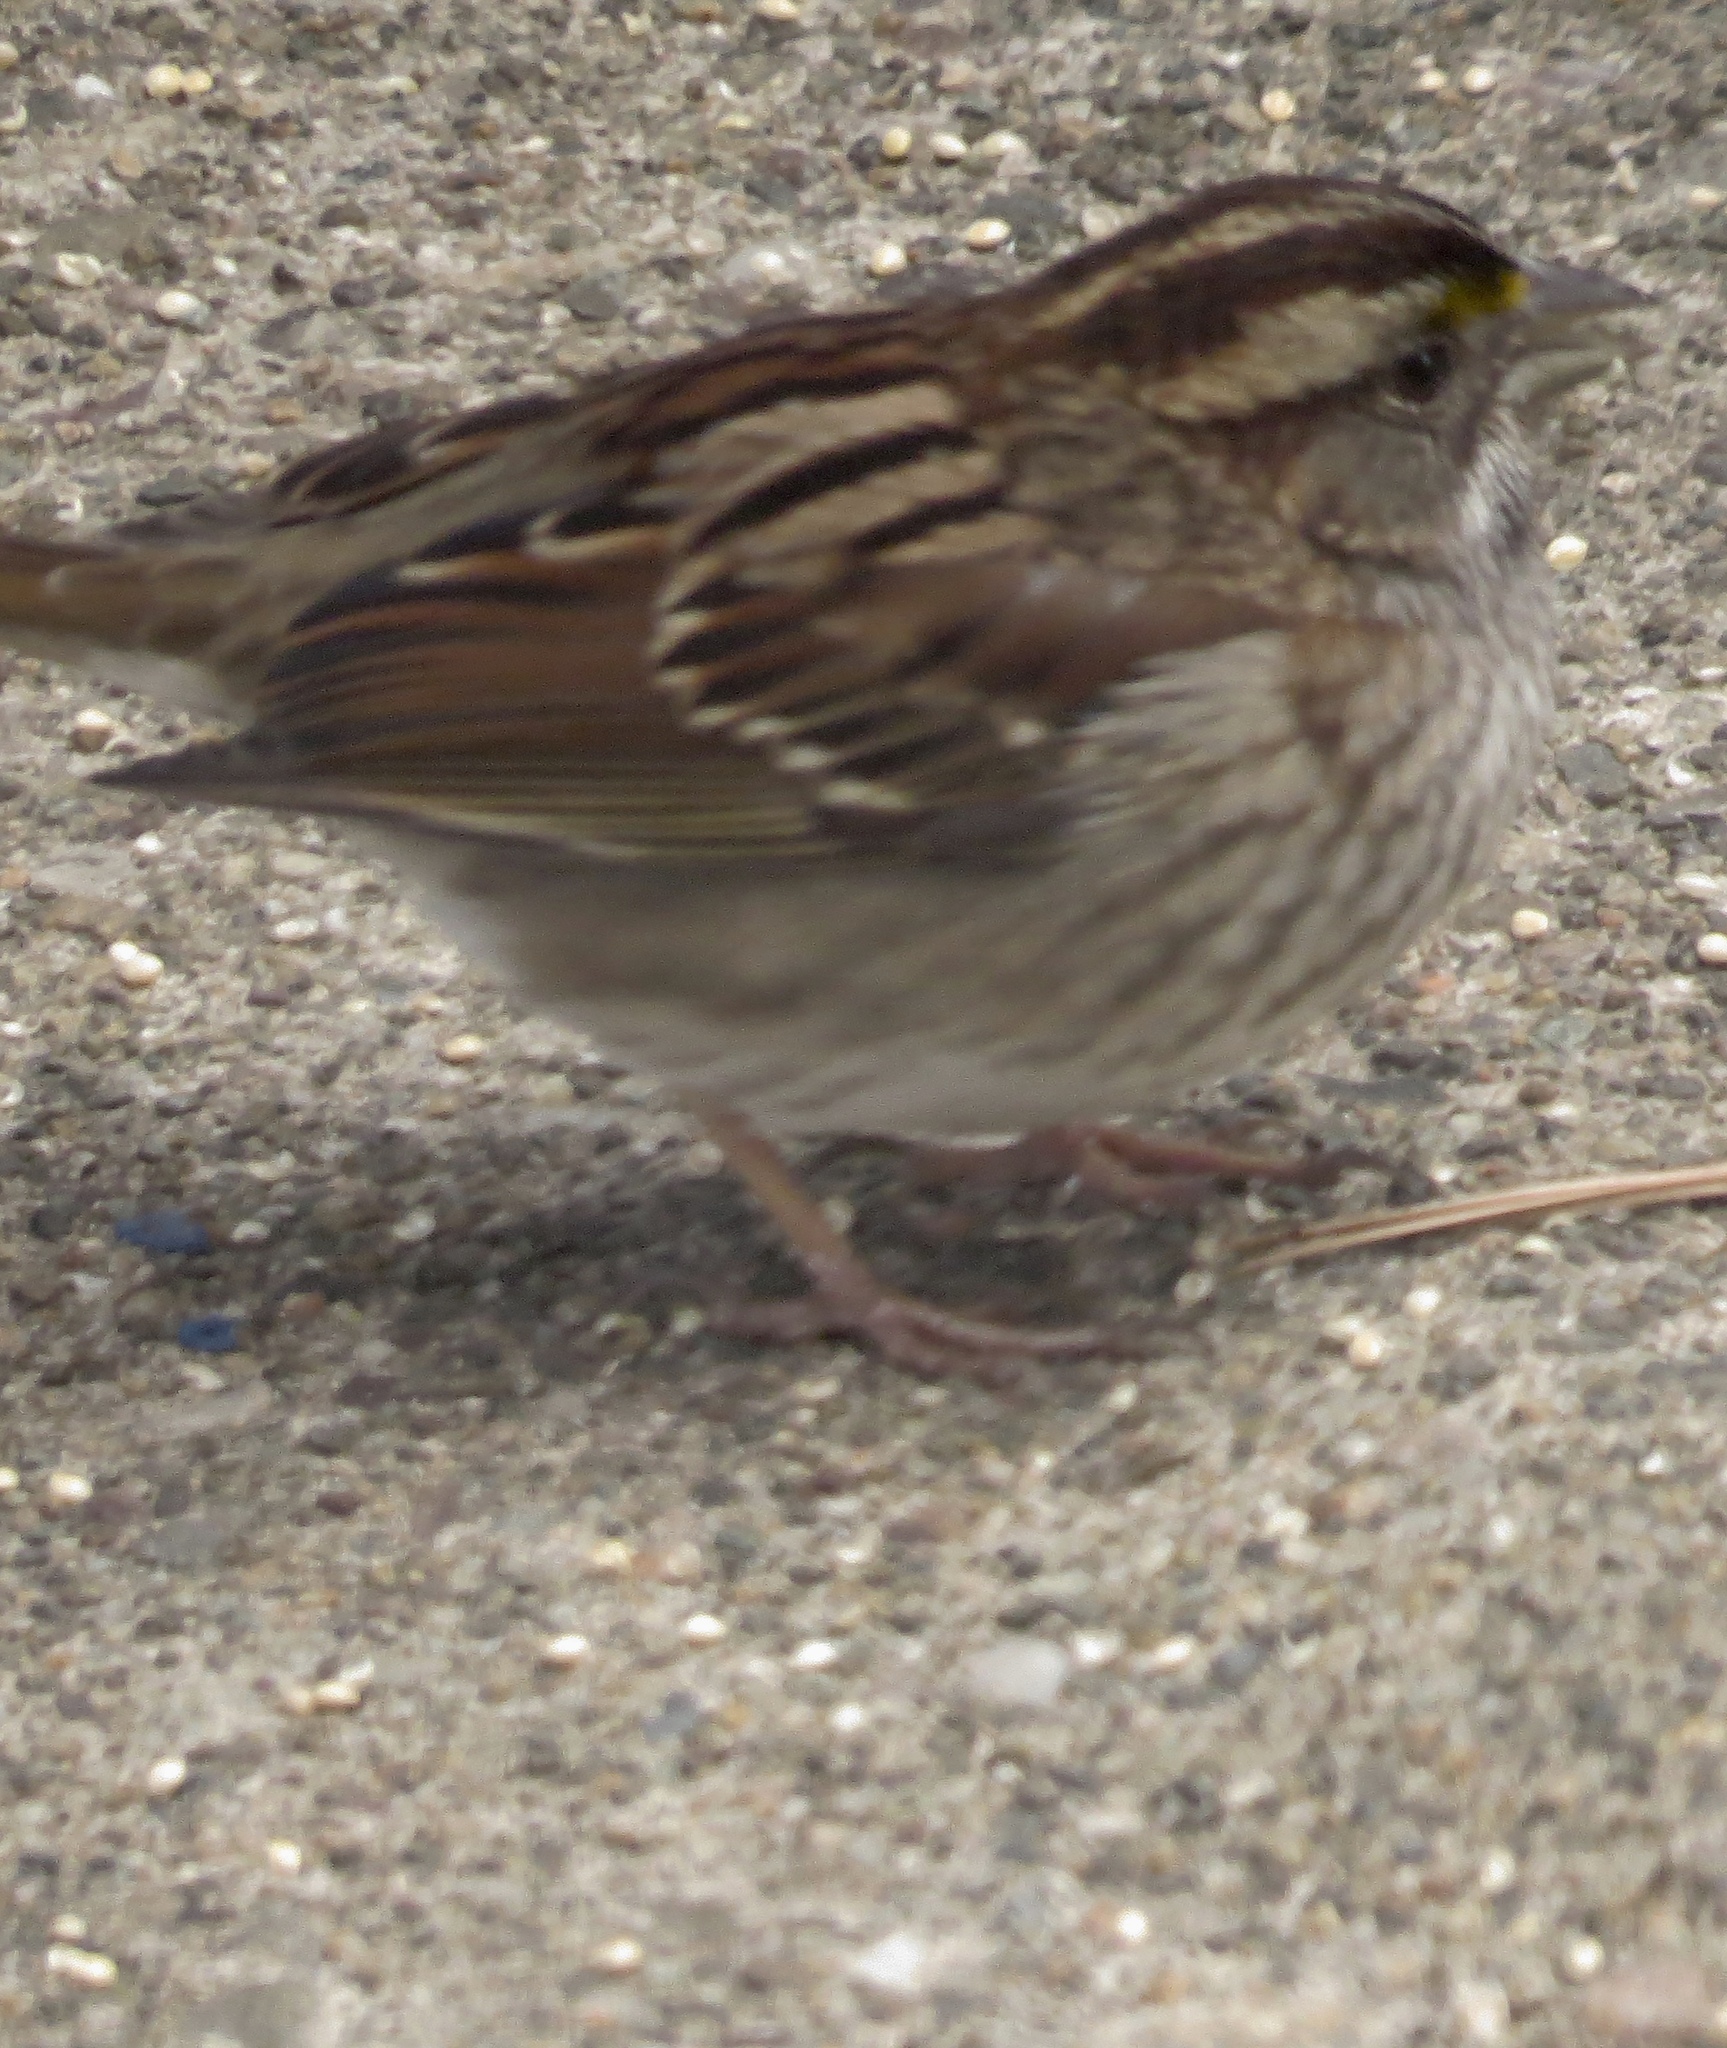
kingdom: Animalia
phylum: Chordata
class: Aves
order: Passeriformes
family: Passerellidae
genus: Zonotrichia
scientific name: Zonotrichia albicollis
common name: White-throated sparrow
